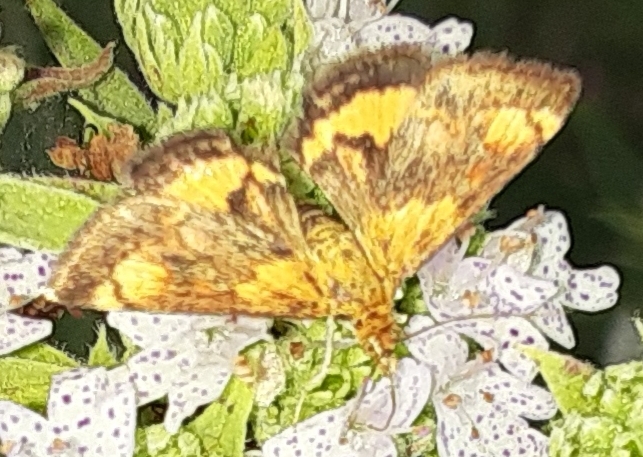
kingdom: Animalia
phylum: Arthropoda
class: Insecta
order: Lepidoptera
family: Crambidae
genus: Pyrausta
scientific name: Pyrausta orphisalis
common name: Orange mint moth
